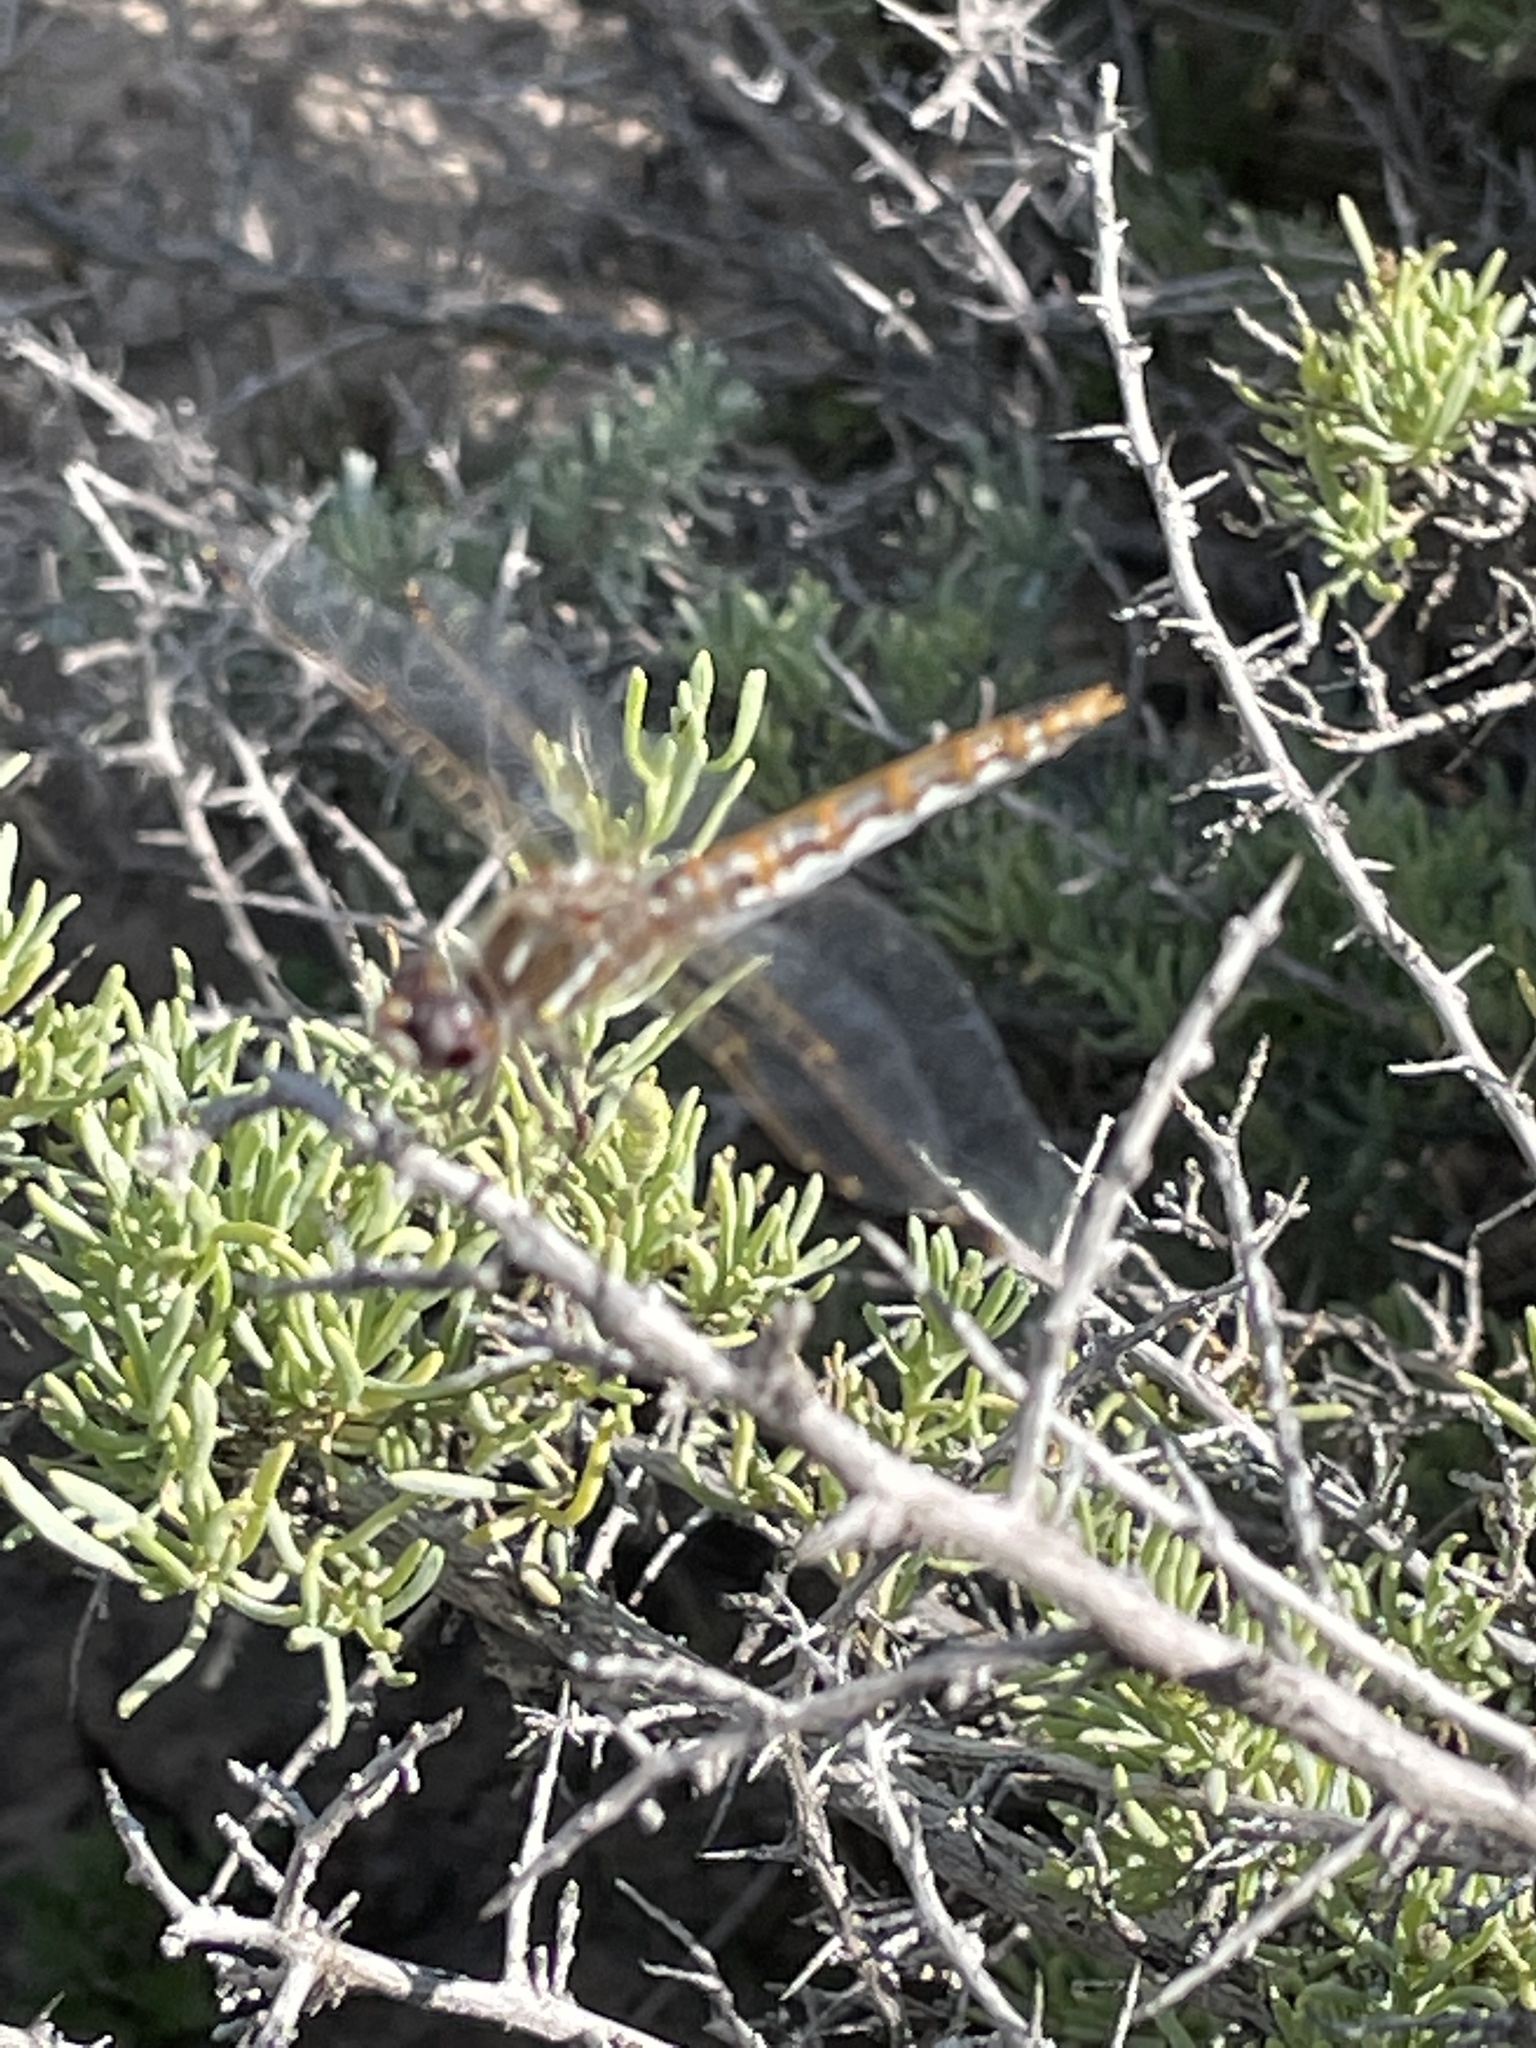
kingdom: Animalia
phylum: Arthropoda
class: Insecta
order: Odonata
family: Libellulidae
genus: Sympetrum
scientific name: Sympetrum corruptum
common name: Variegated meadowhawk
